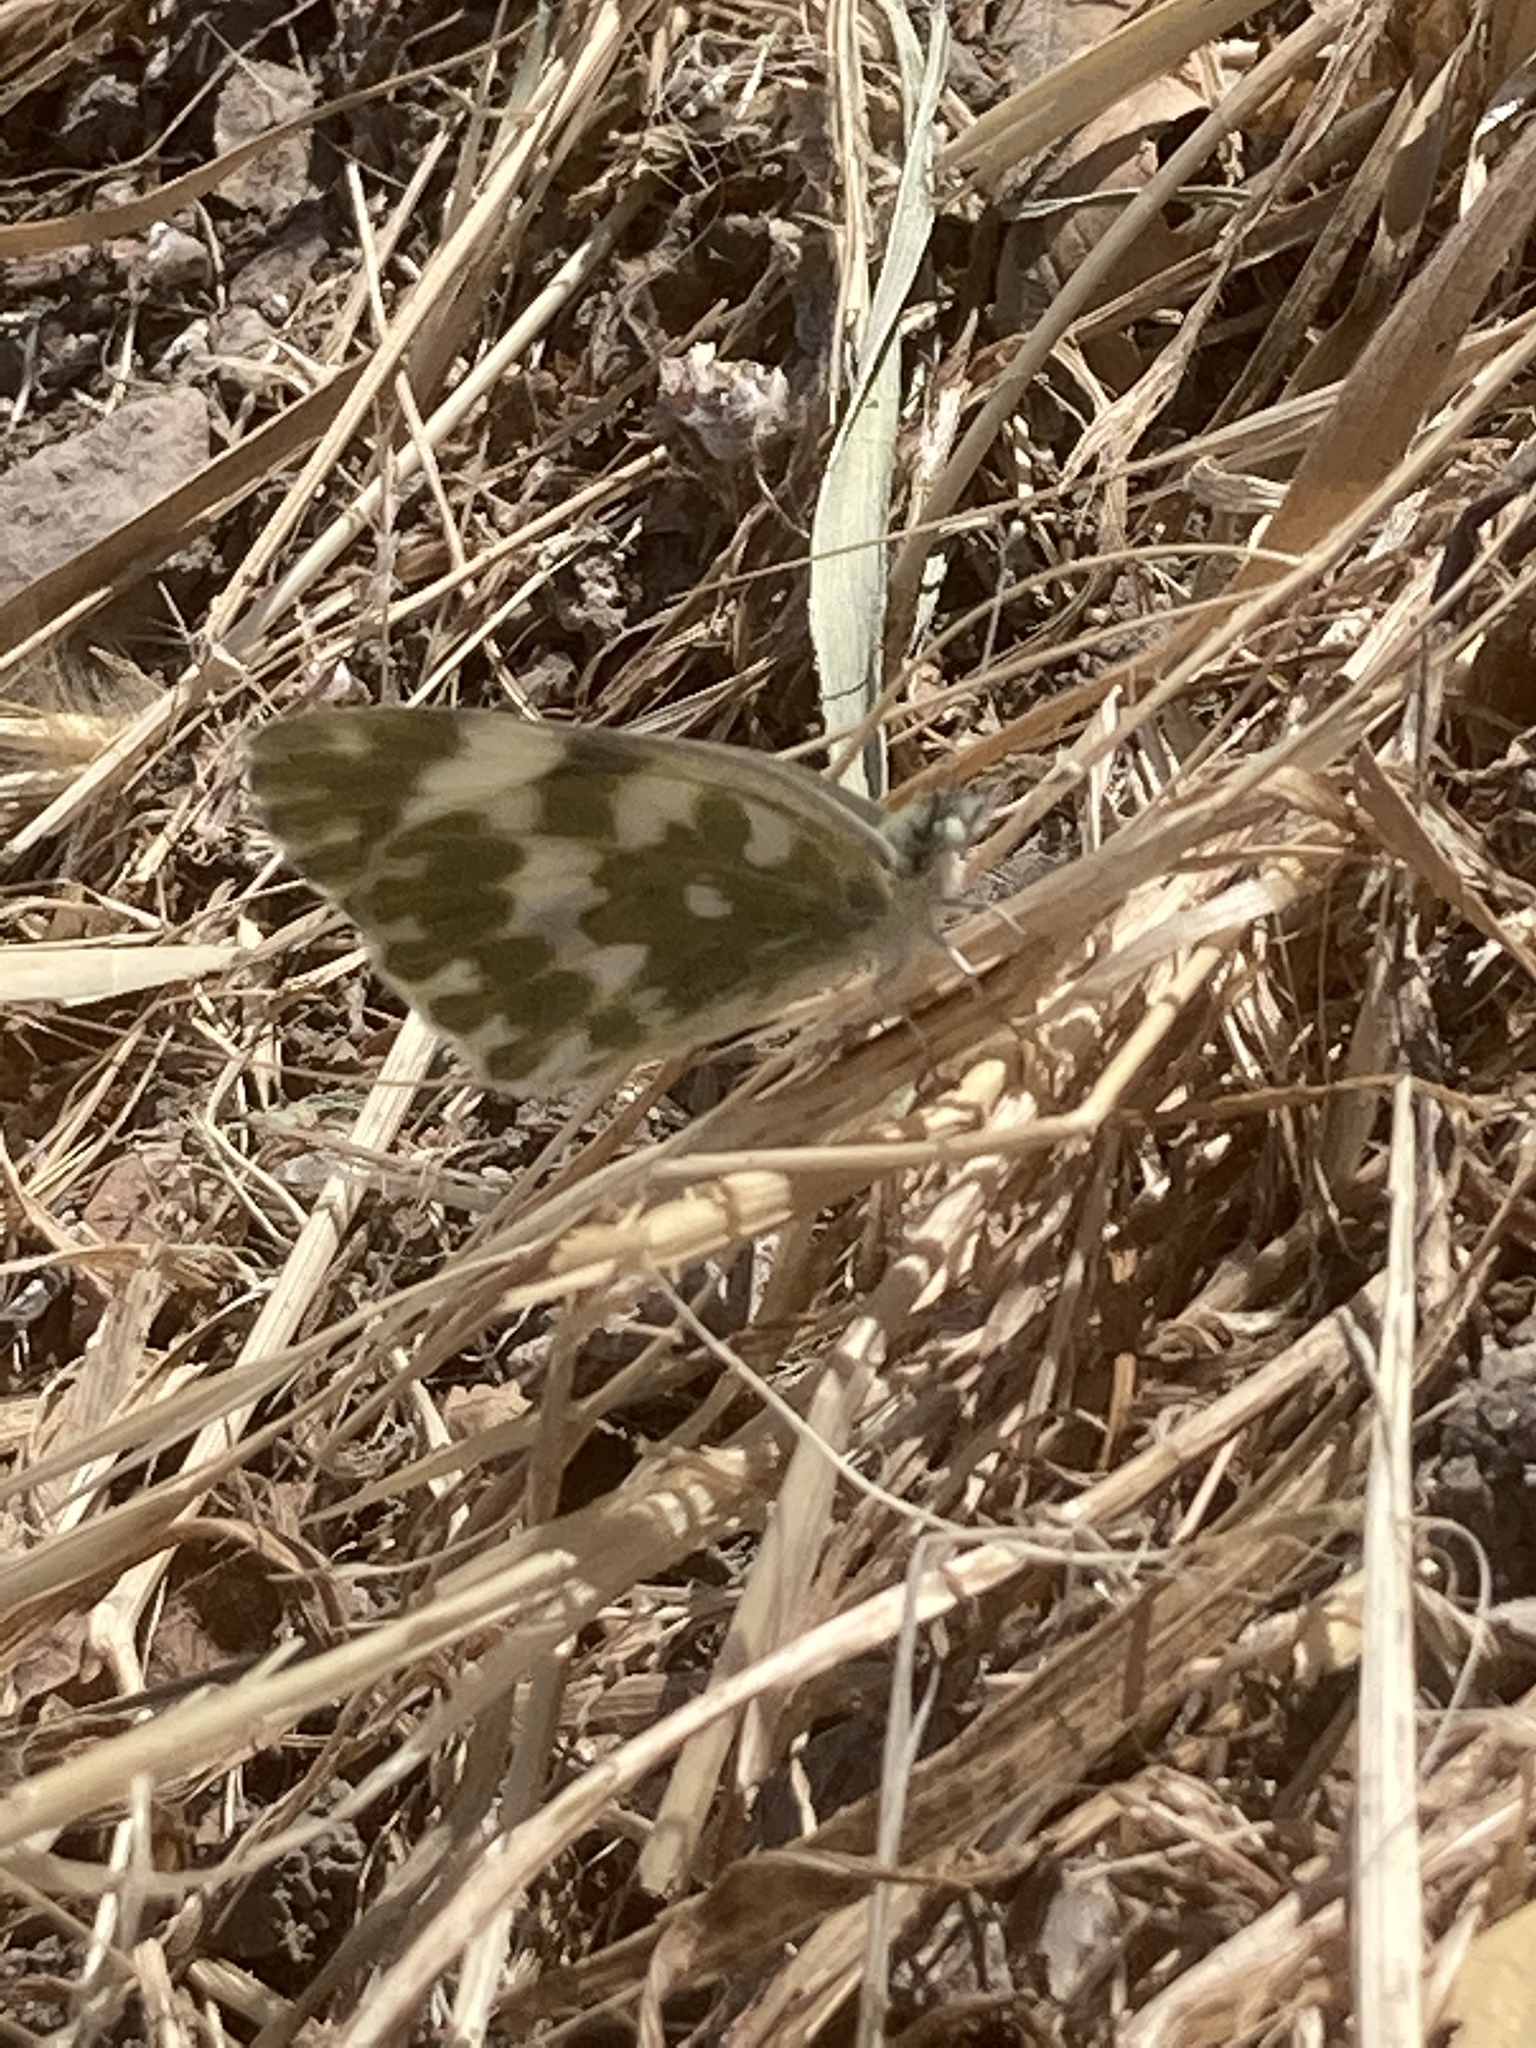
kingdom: Animalia
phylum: Arthropoda
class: Insecta
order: Lepidoptera
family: Pieridae
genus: Pontia
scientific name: Pontia edusa
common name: Eastern bath white
